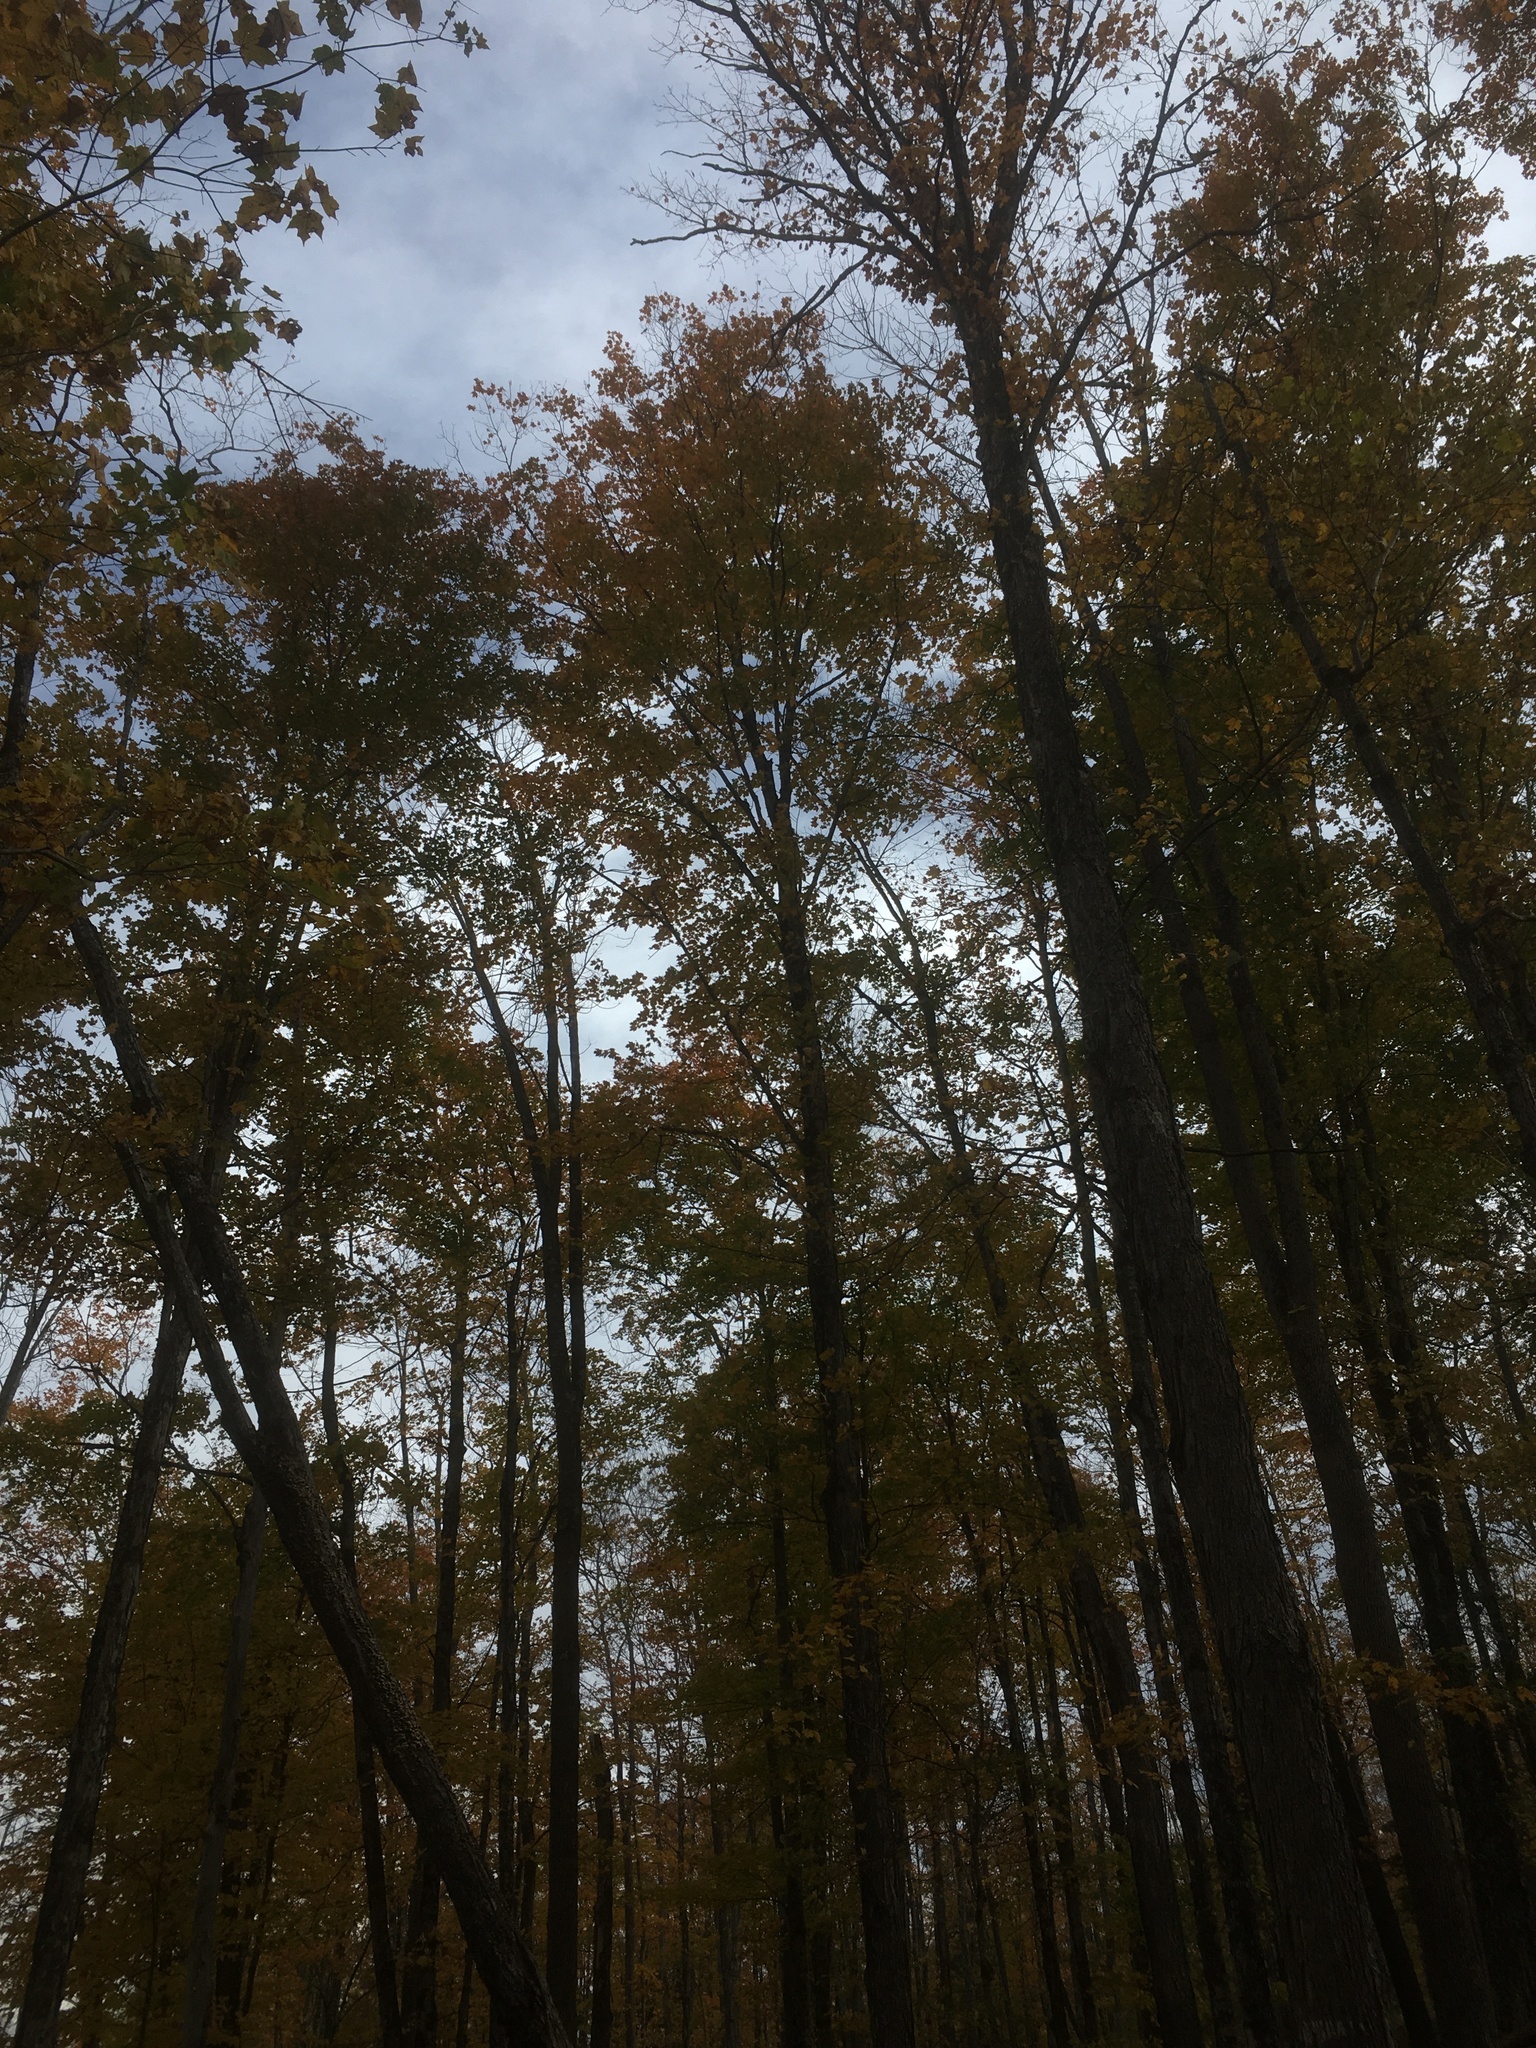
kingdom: Plantae
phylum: Tracheophyta
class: Magnoliopsida
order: Sapindales
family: Sapindaceae
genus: Acer
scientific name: Acer saccharum
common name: Sugar maple
